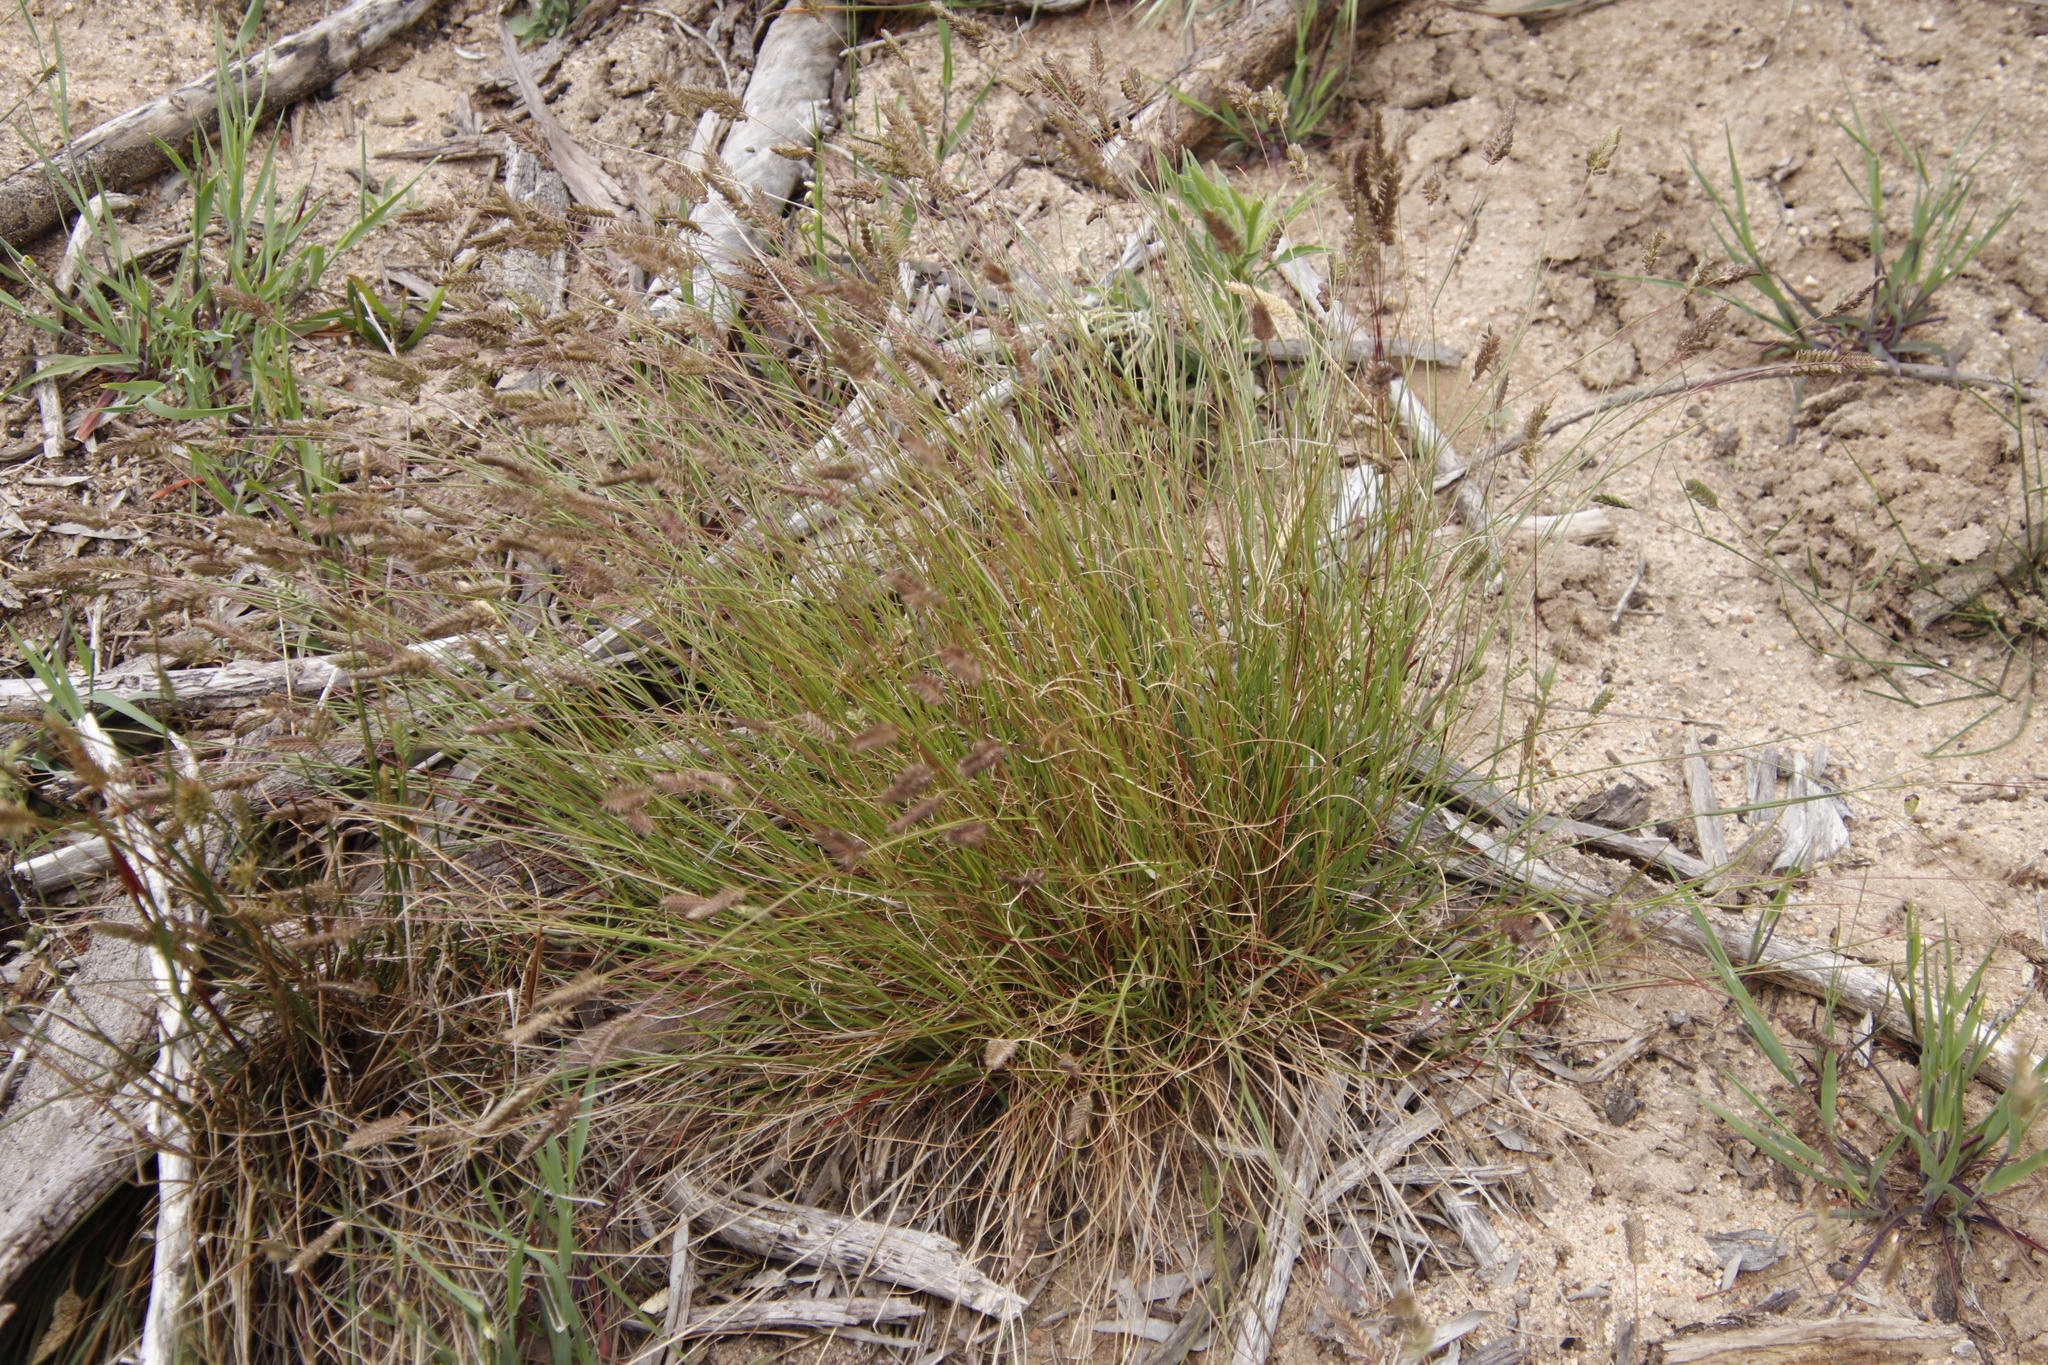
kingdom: Plantae
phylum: Tracheophyta
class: Liliopsida
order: Poales
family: Poaceae
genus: Tribolium
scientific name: Tribolium uniolae
